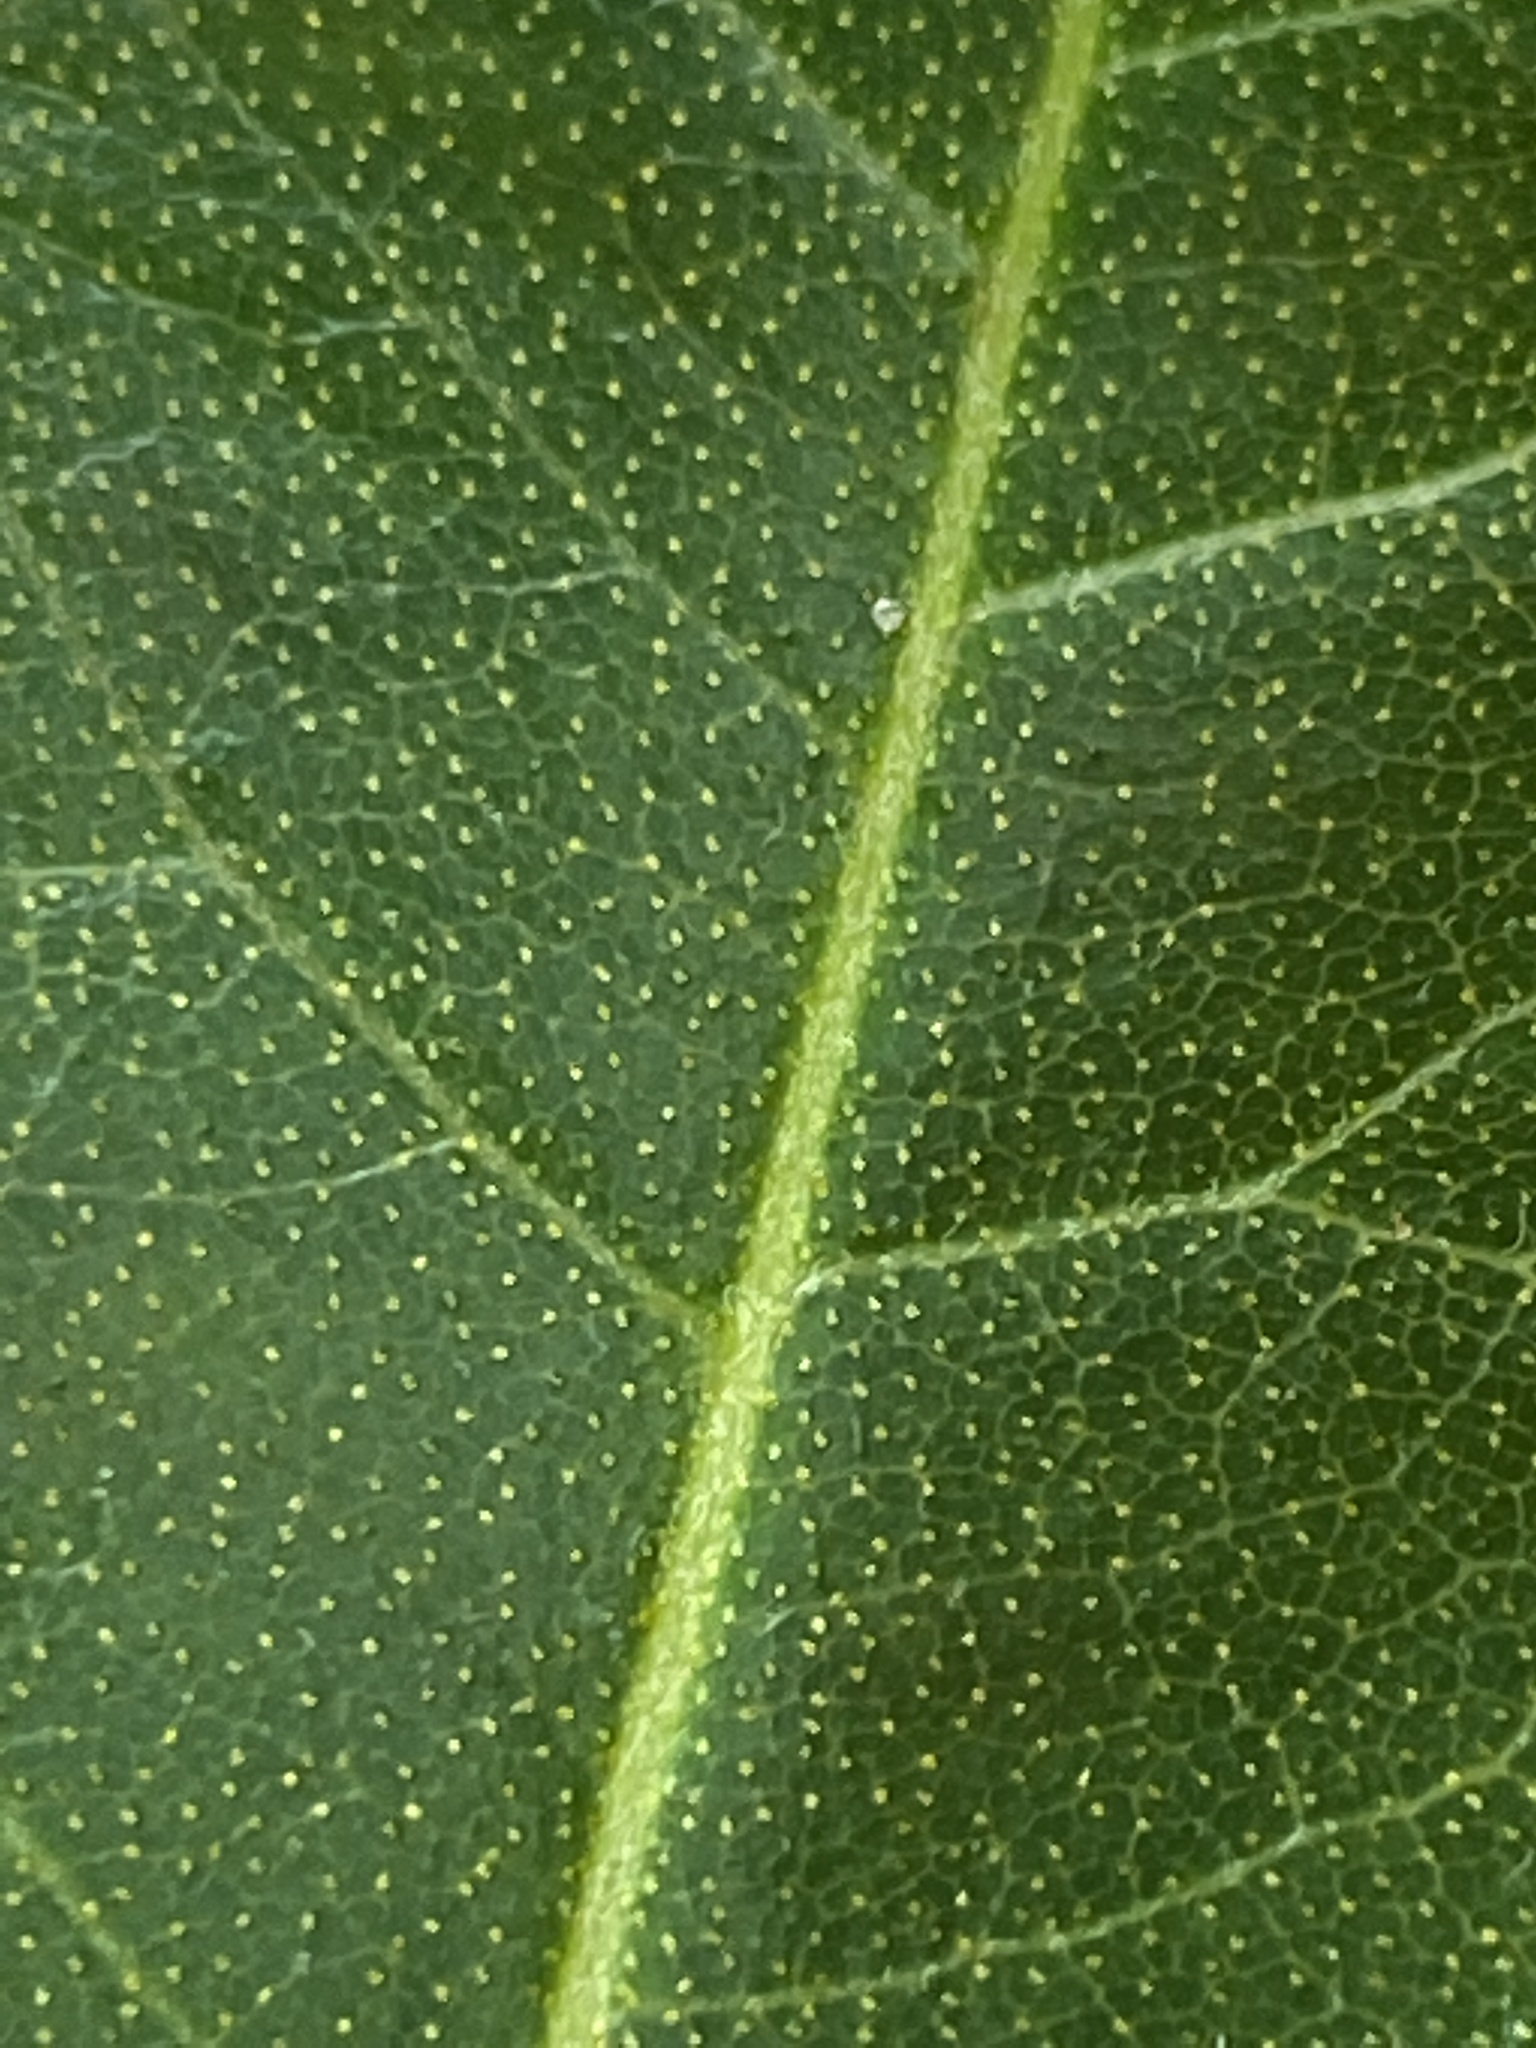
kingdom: Plantae
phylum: Tracheophyta
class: Magnoliopsida
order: Fagales
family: Myricaceae
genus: Morella
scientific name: Morella cerifera
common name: Wax myrtle
